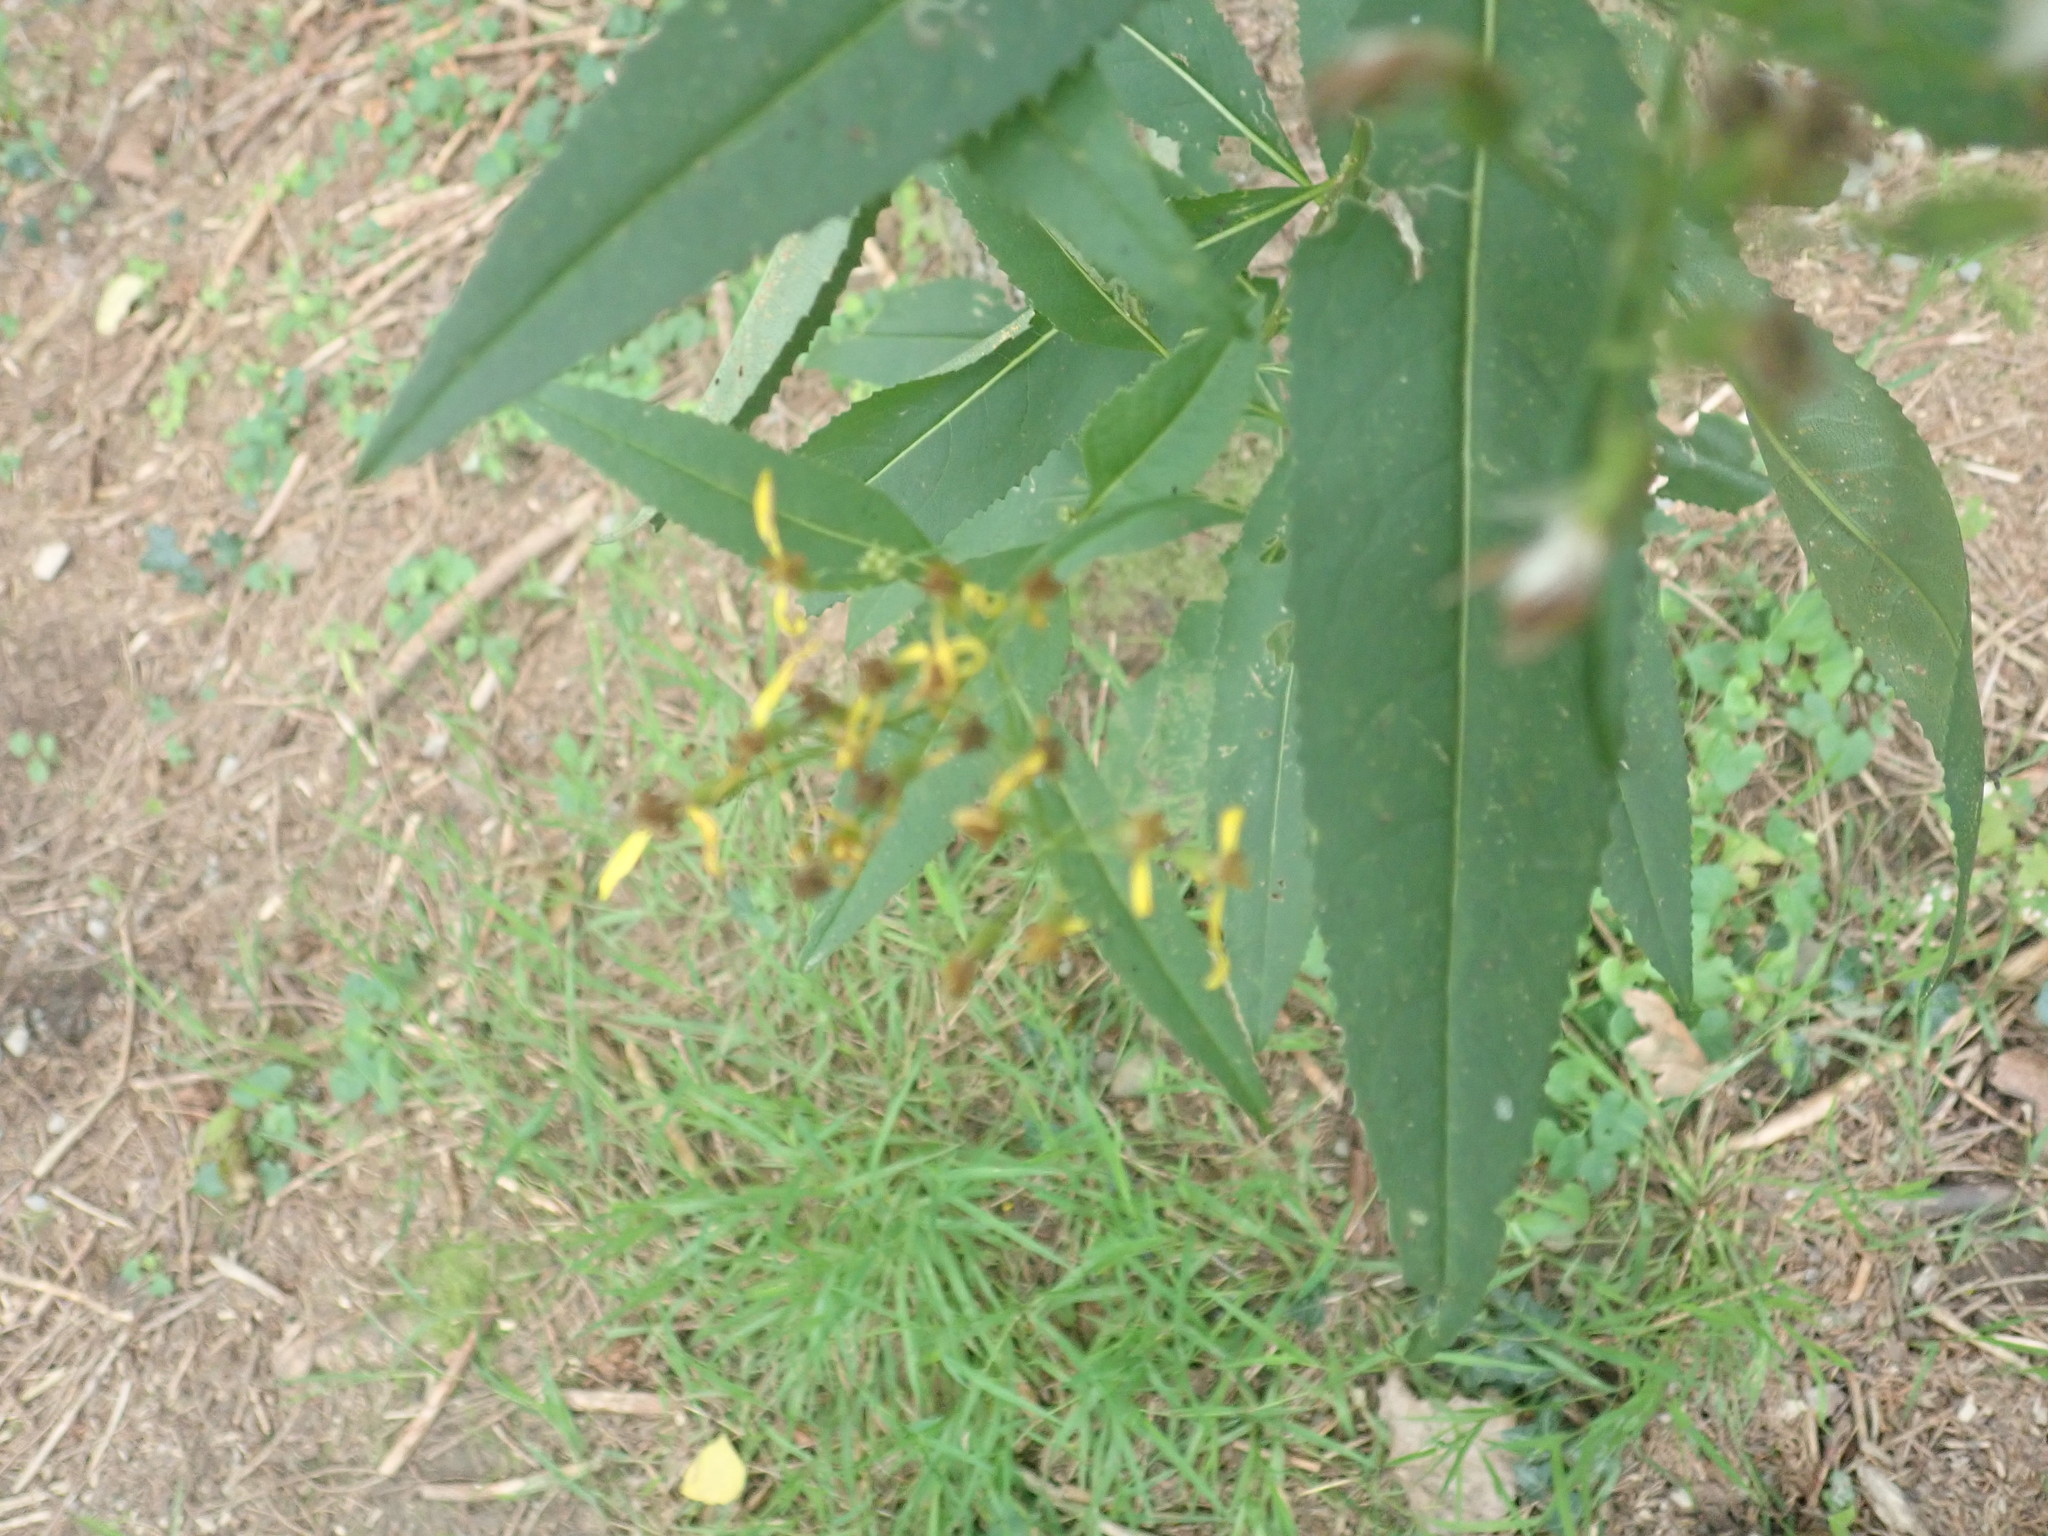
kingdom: Plantae
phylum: Tracheophyta
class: Magnoliopsida
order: Asterales
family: Asteraceae
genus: Senecio
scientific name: Senecio ovatus
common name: Wood ragwort
